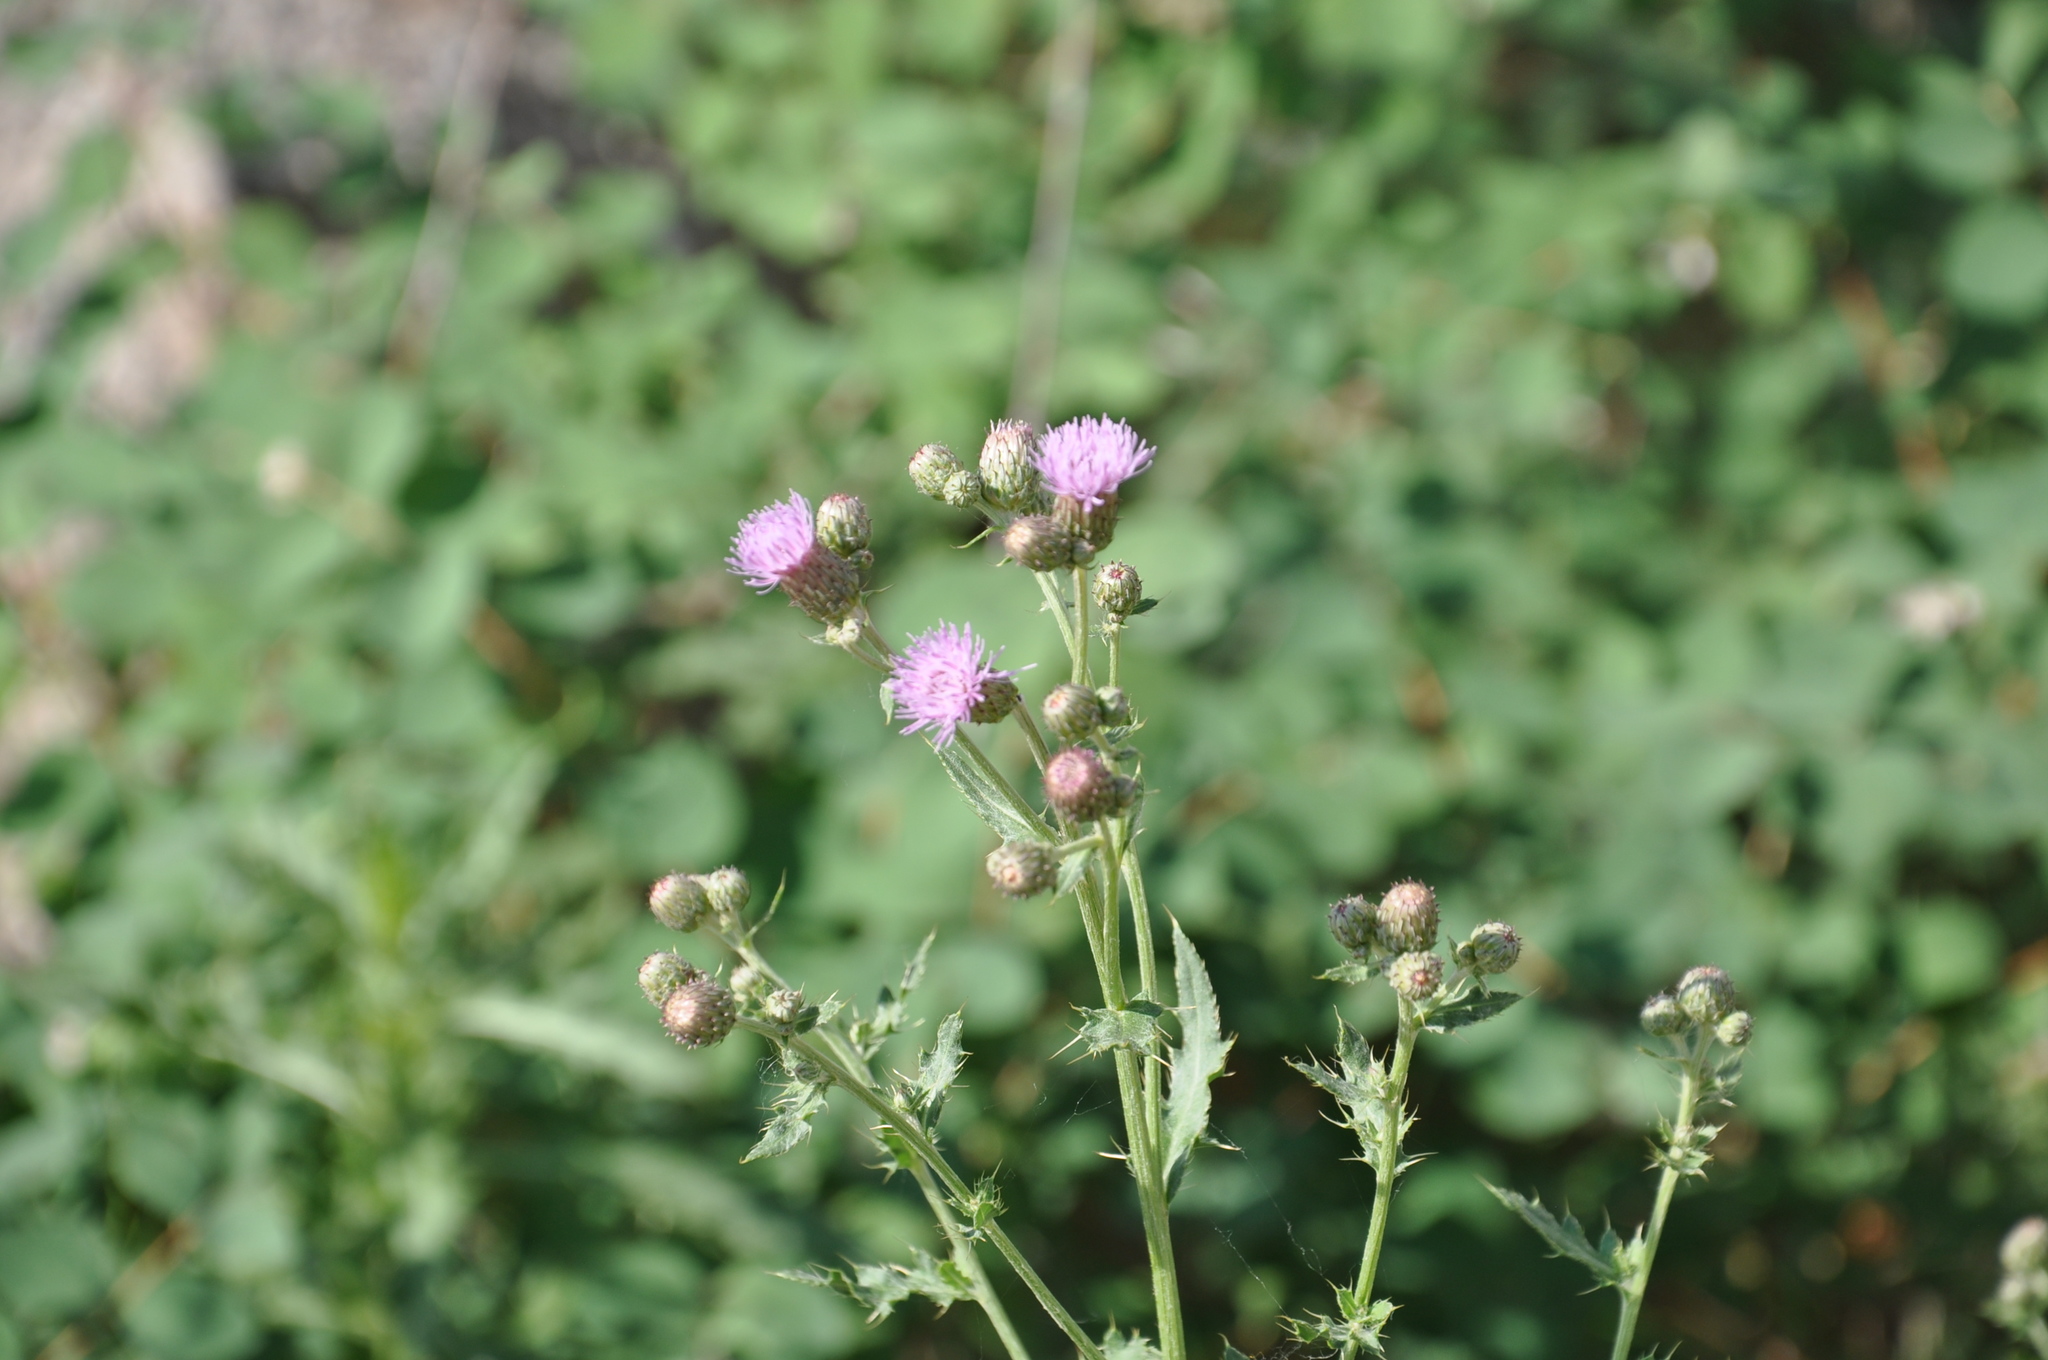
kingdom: Plantae
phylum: Tracheophyta
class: Magnoliopsida
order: Asterales
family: Asteraceae
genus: Cirsium
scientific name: Cirsium arvense
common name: Creeping thistle
